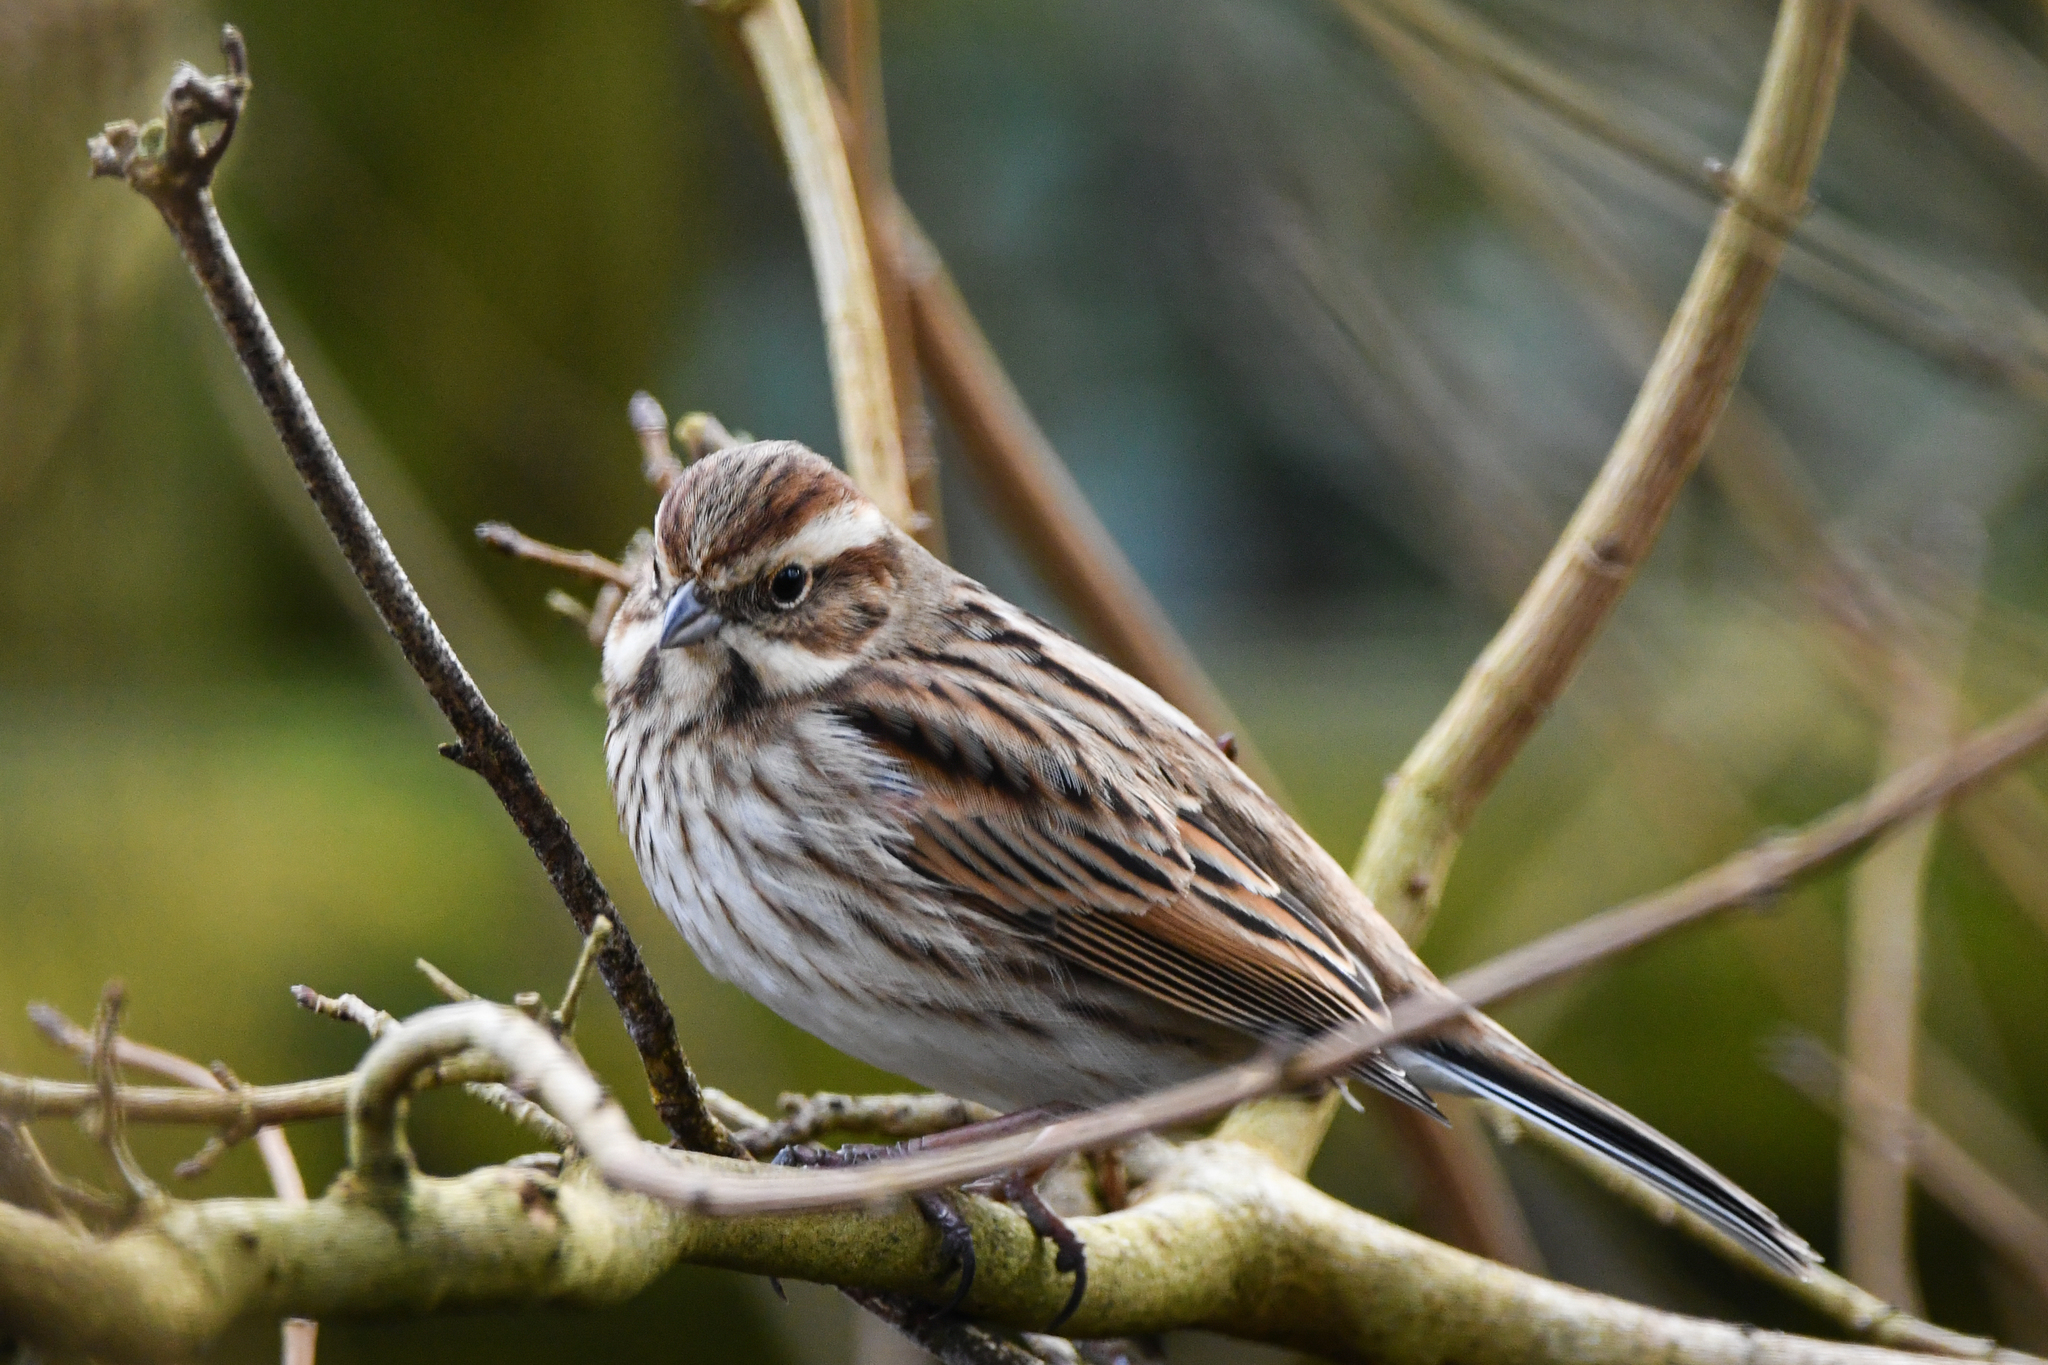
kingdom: Animalia
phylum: Chordata
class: Aves
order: Passeriformes
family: Emberizidae
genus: Emberiza
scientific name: Emberiza schoeniclus
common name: Reed bunting
